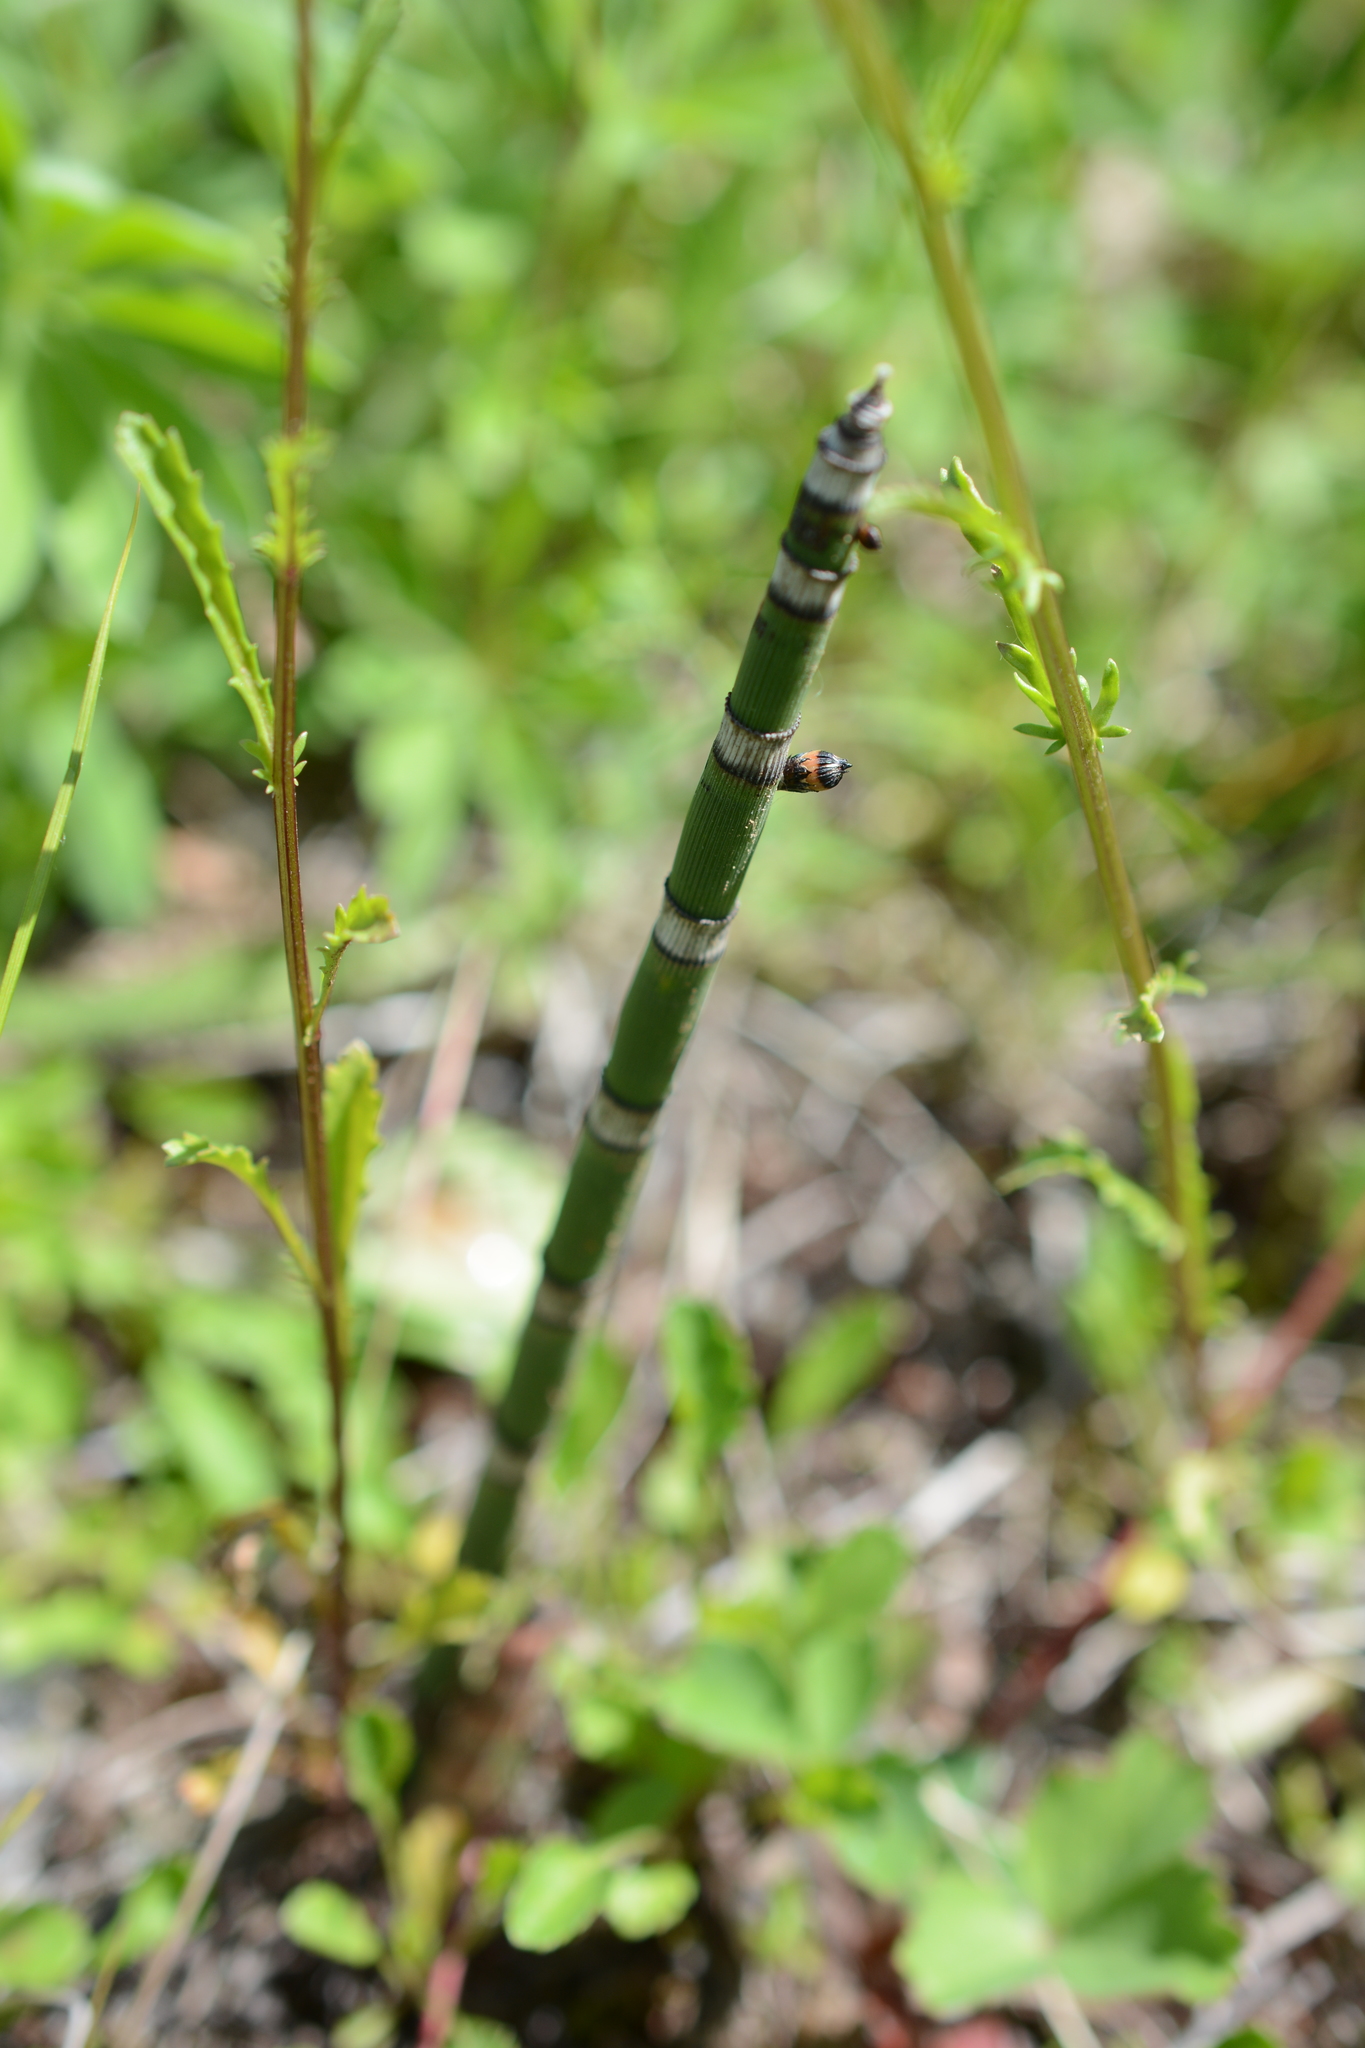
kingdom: Plantae
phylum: Tracheophyta
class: Polypodiopsida
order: Equisetales
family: Equisetaceae
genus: Equisetum
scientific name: Equisetum hyemale
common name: Rough horsetail
